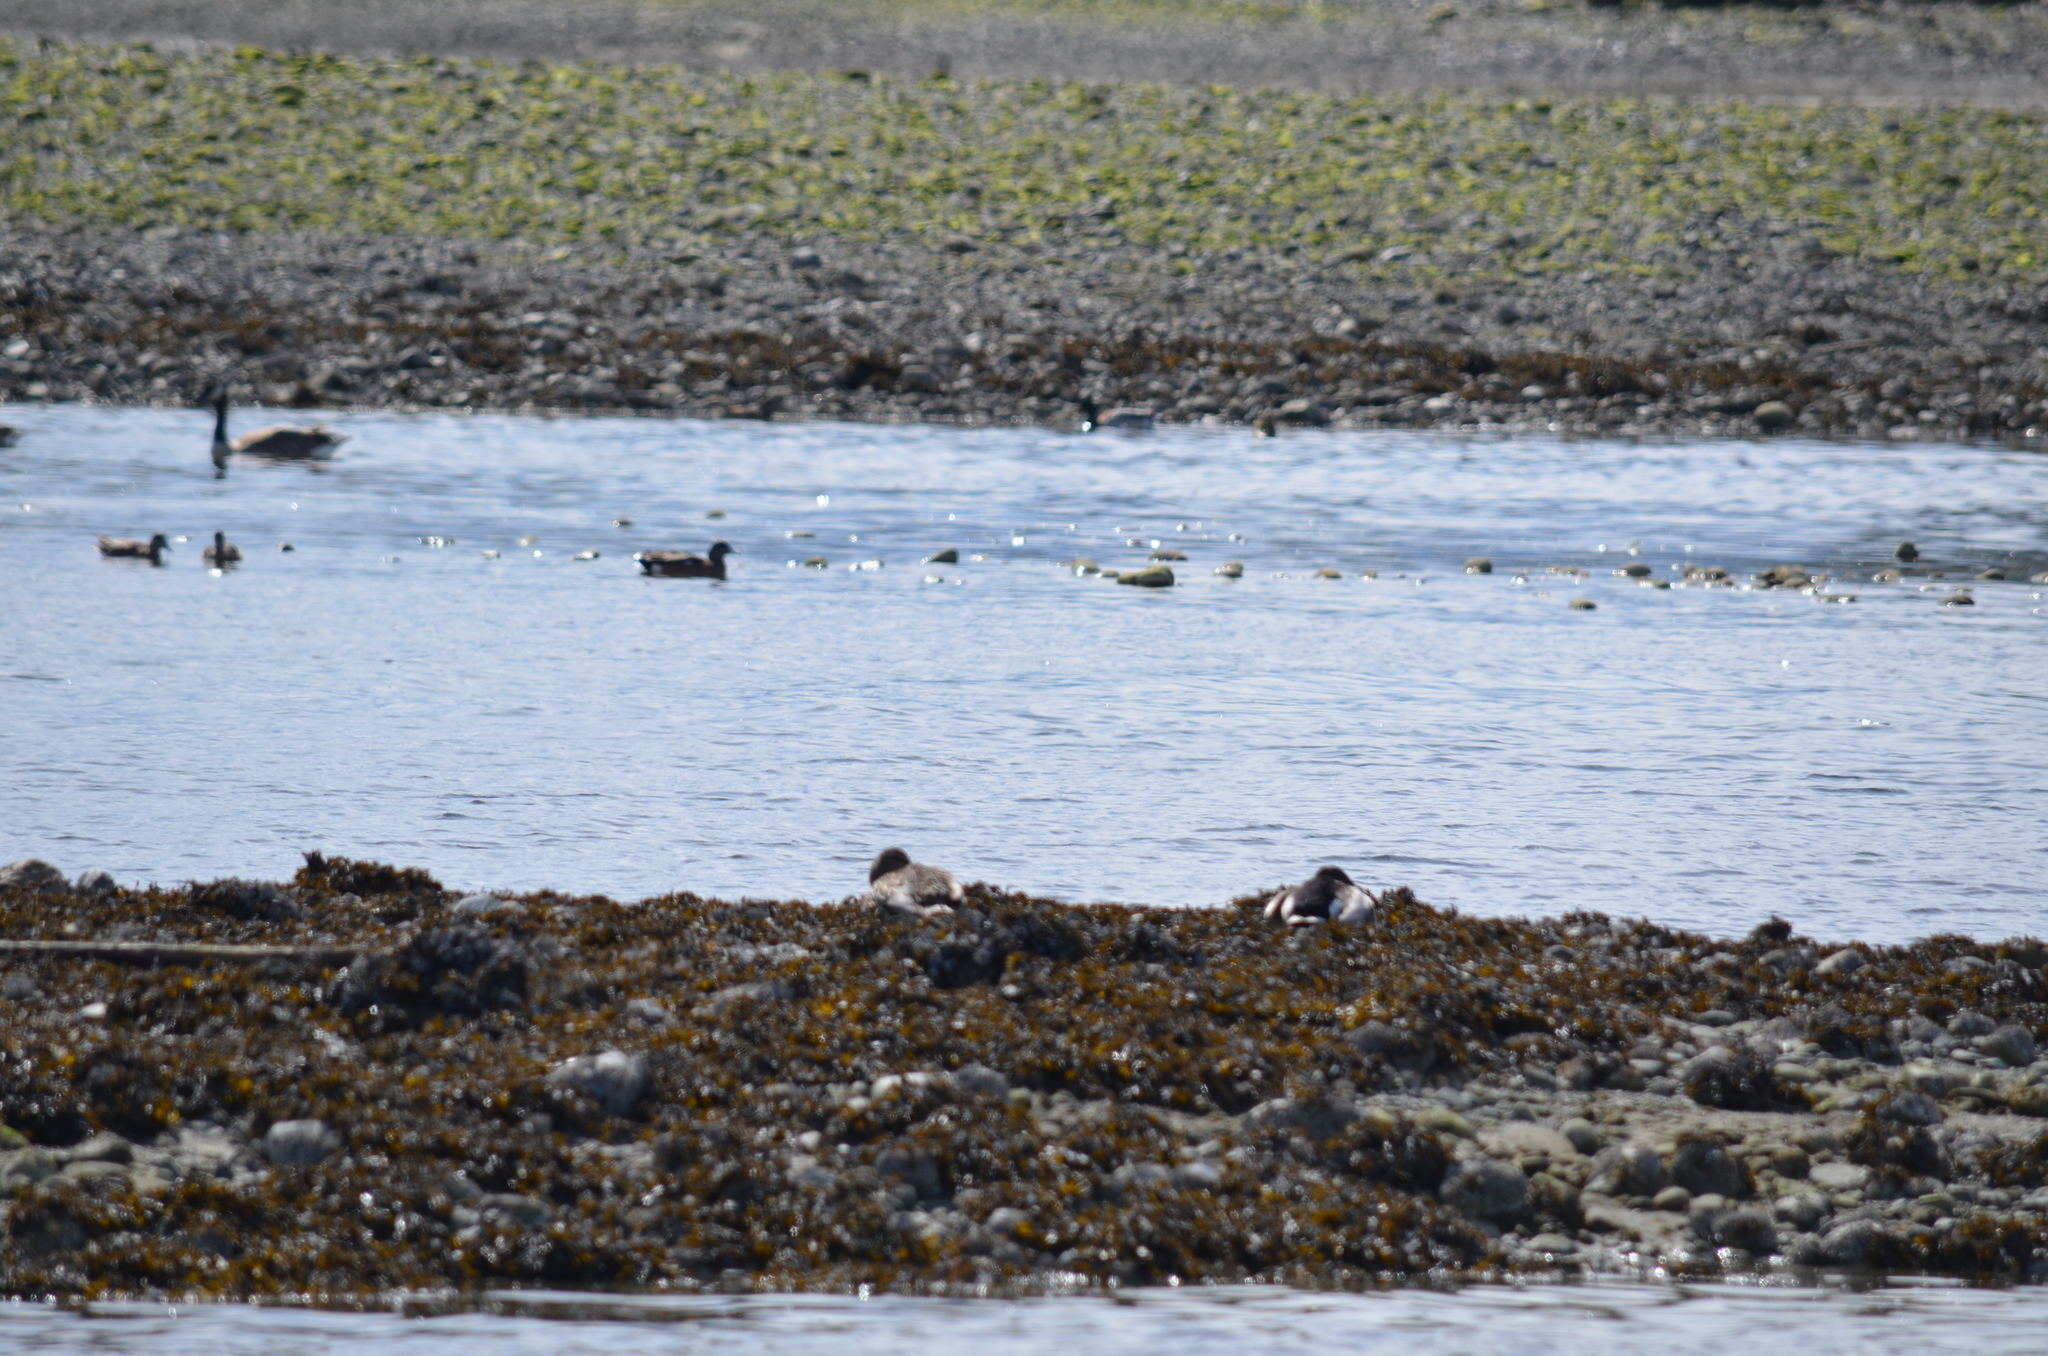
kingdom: Animalia
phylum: Chordata
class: Aves
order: Anseriformes
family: Anatidae
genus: Anas
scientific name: Anas platyrhynchos
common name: Mallard
